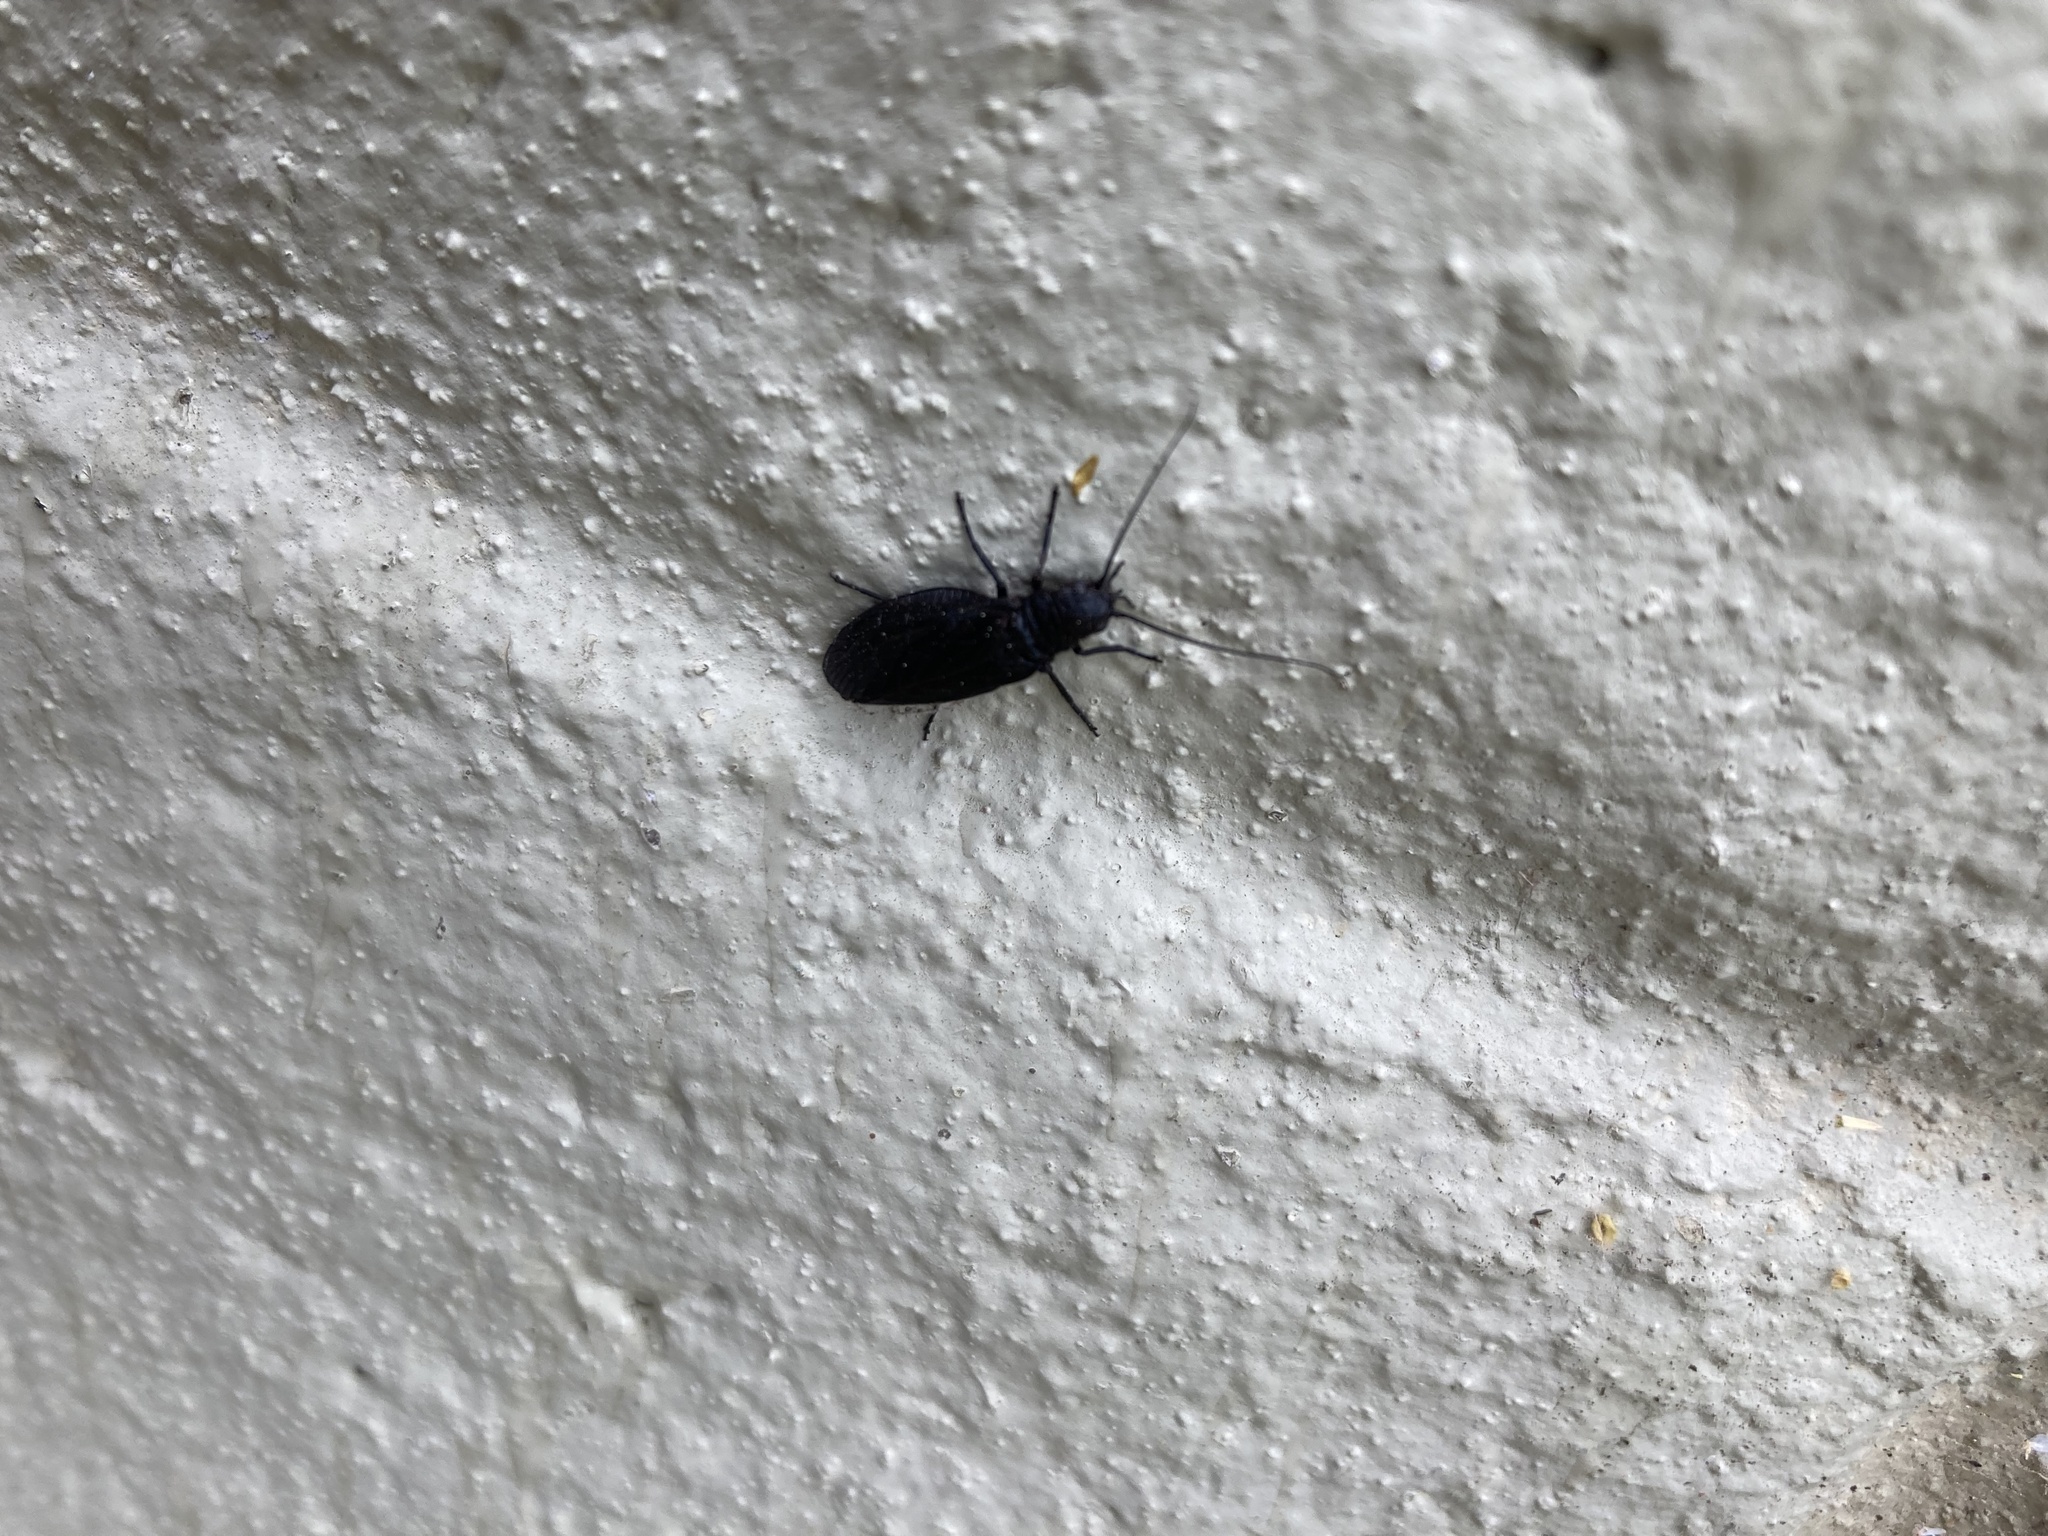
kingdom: Animalia
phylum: Arthropoda
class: Insecta
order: Megaloptera
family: Sialidae
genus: Sialis
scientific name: Sialis
